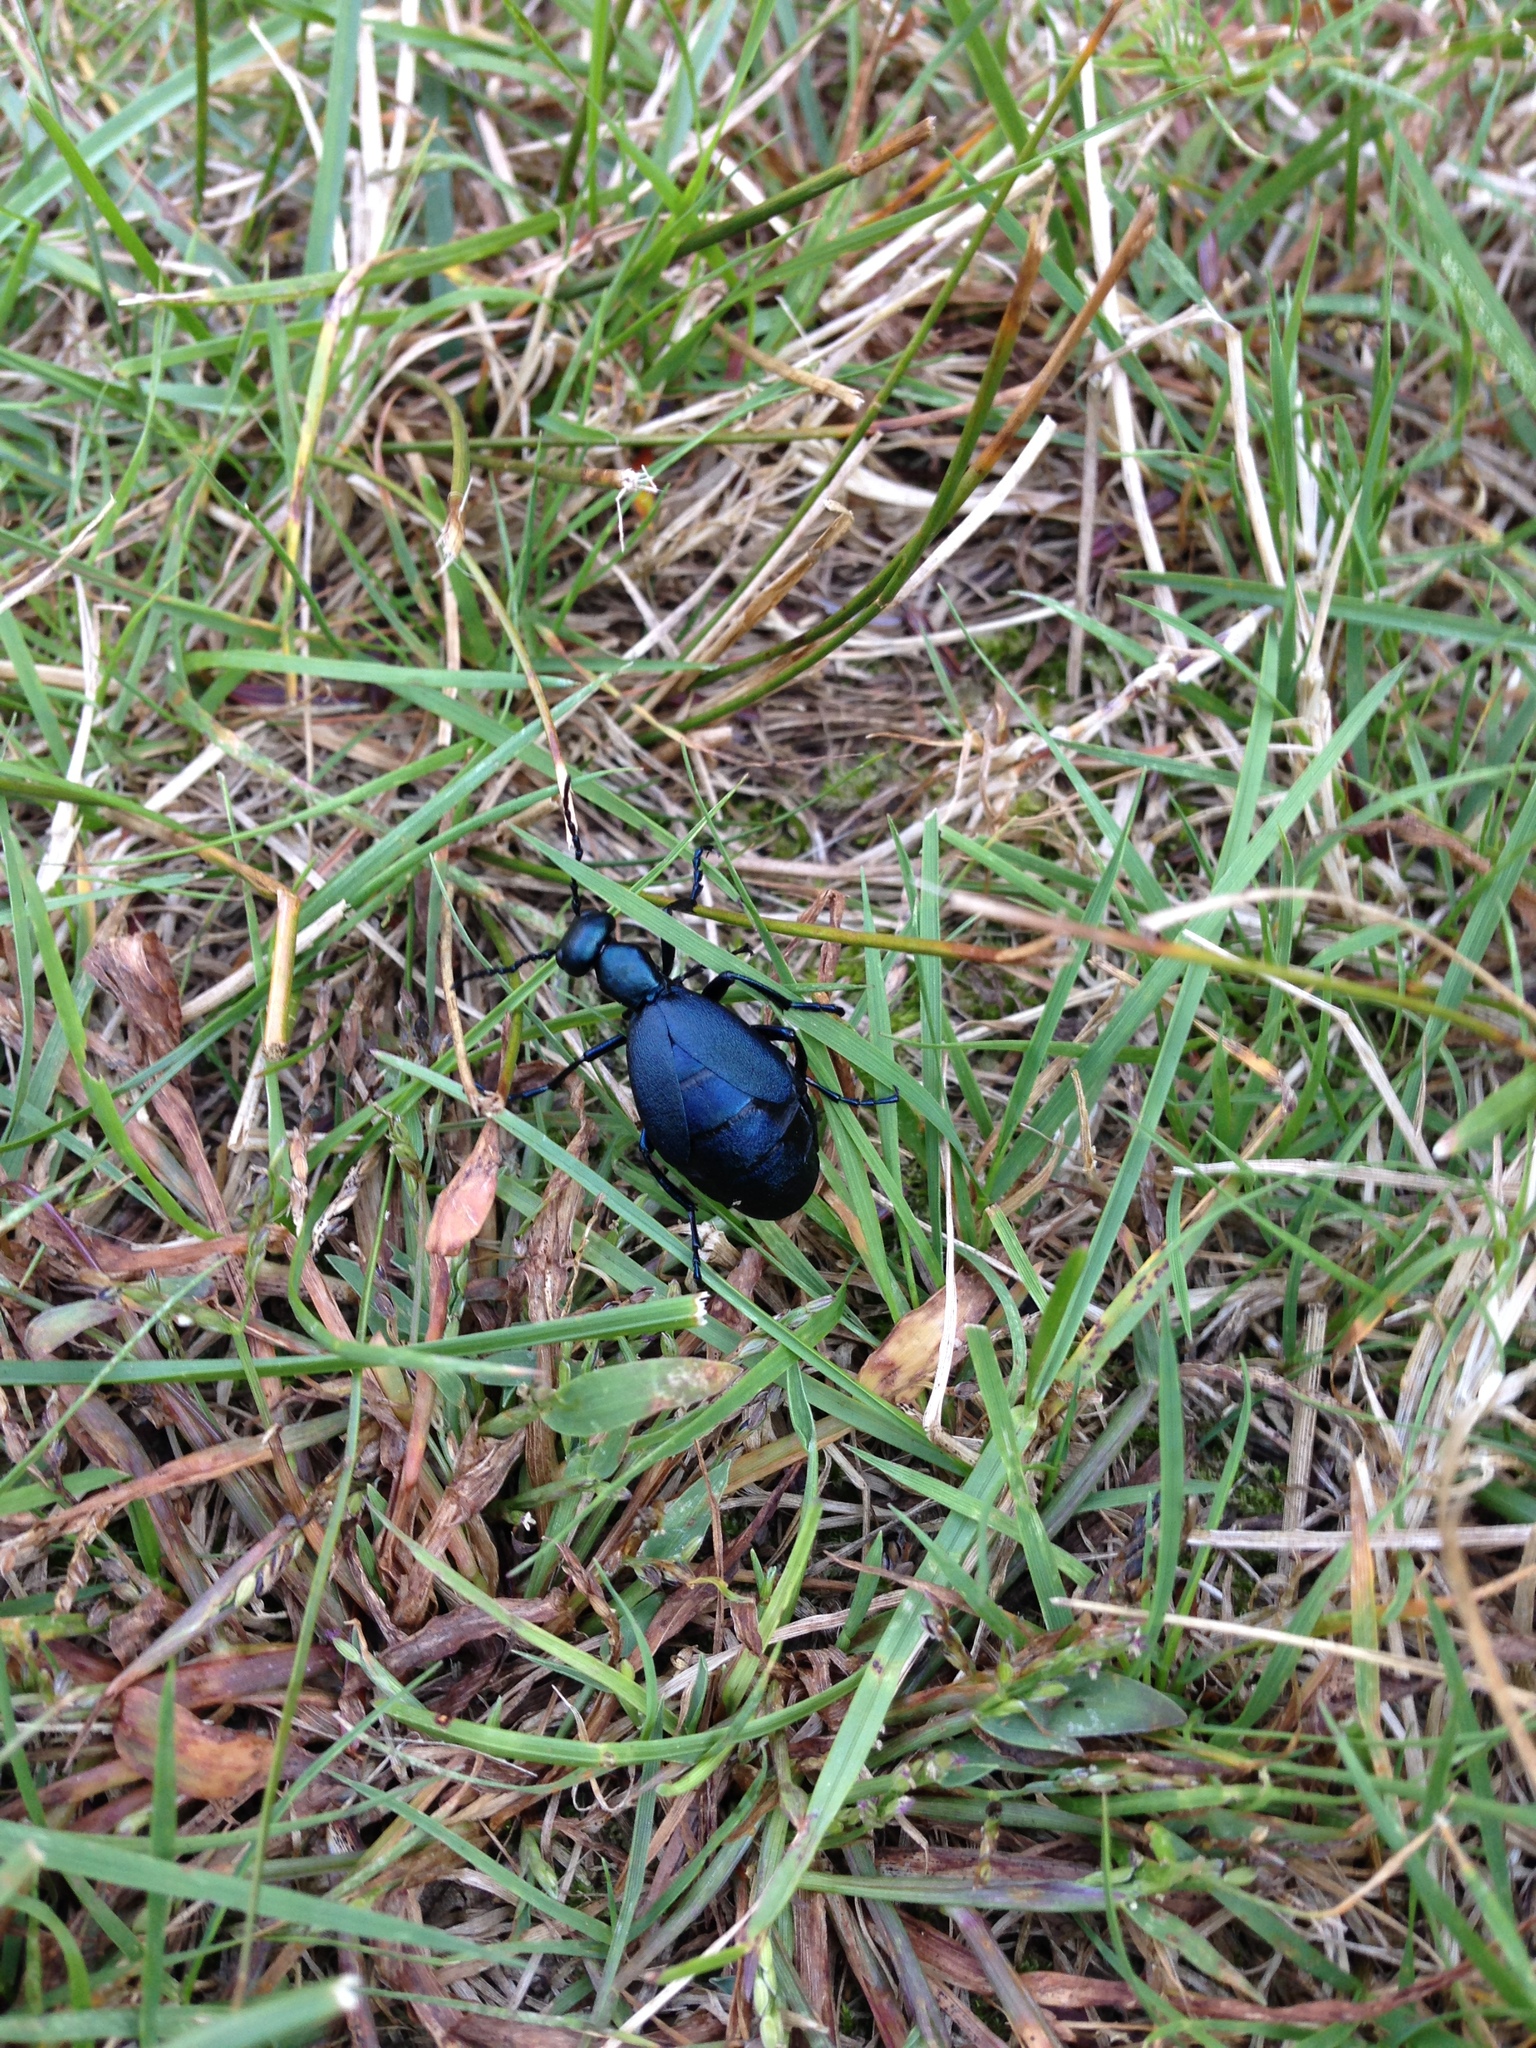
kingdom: Animalia
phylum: Arthropoda
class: Insecta
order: Coleoptera
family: Meloidae
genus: Meloe
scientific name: Meloe impressus
